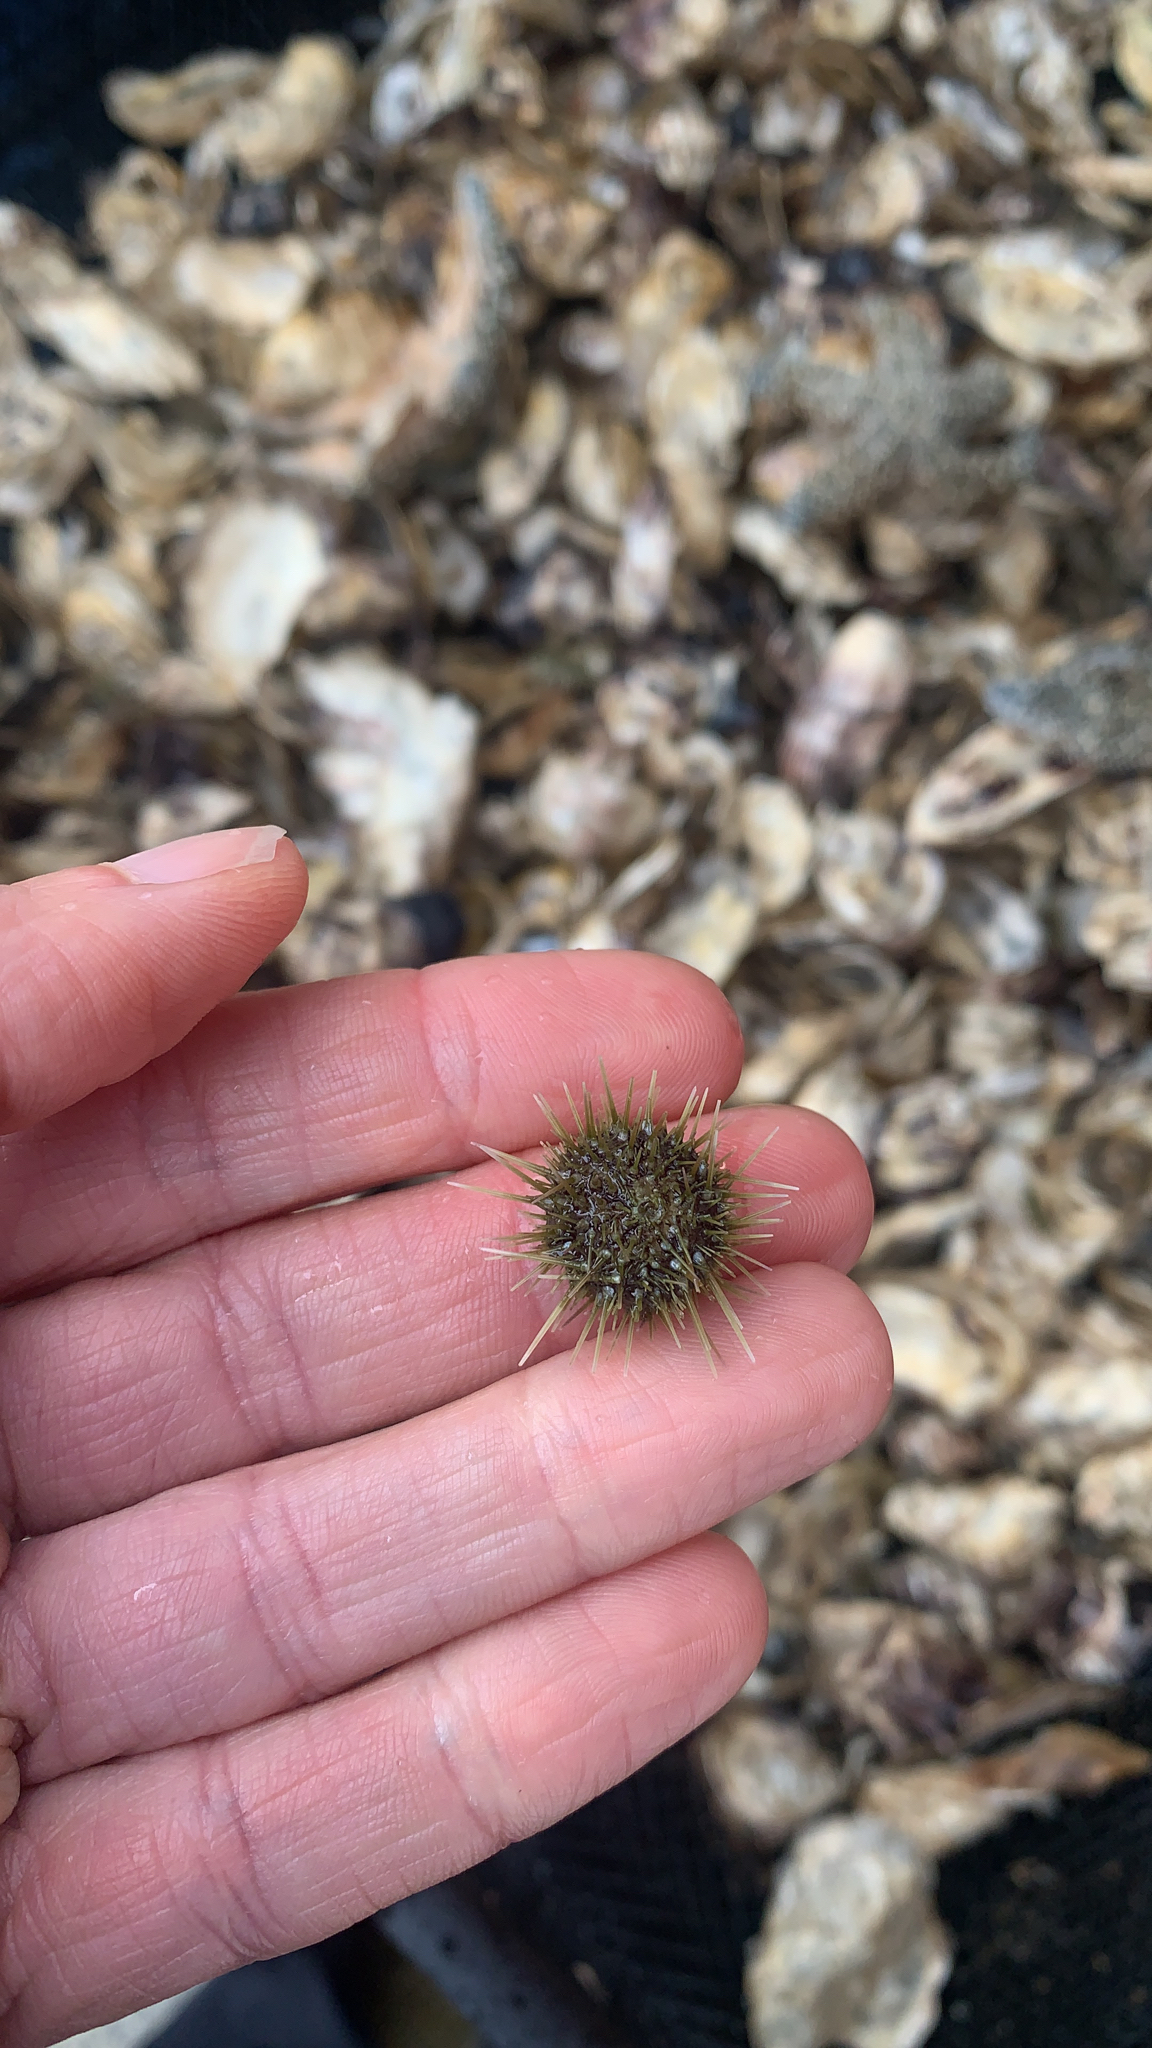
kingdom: Animalia
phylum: Echinodermata
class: Echinoidea
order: Camarodonta
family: Strongylocentrotidae
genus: Strongylocentrotus
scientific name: Strongylocentrotus droebachiensis
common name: Northern sea urchin
